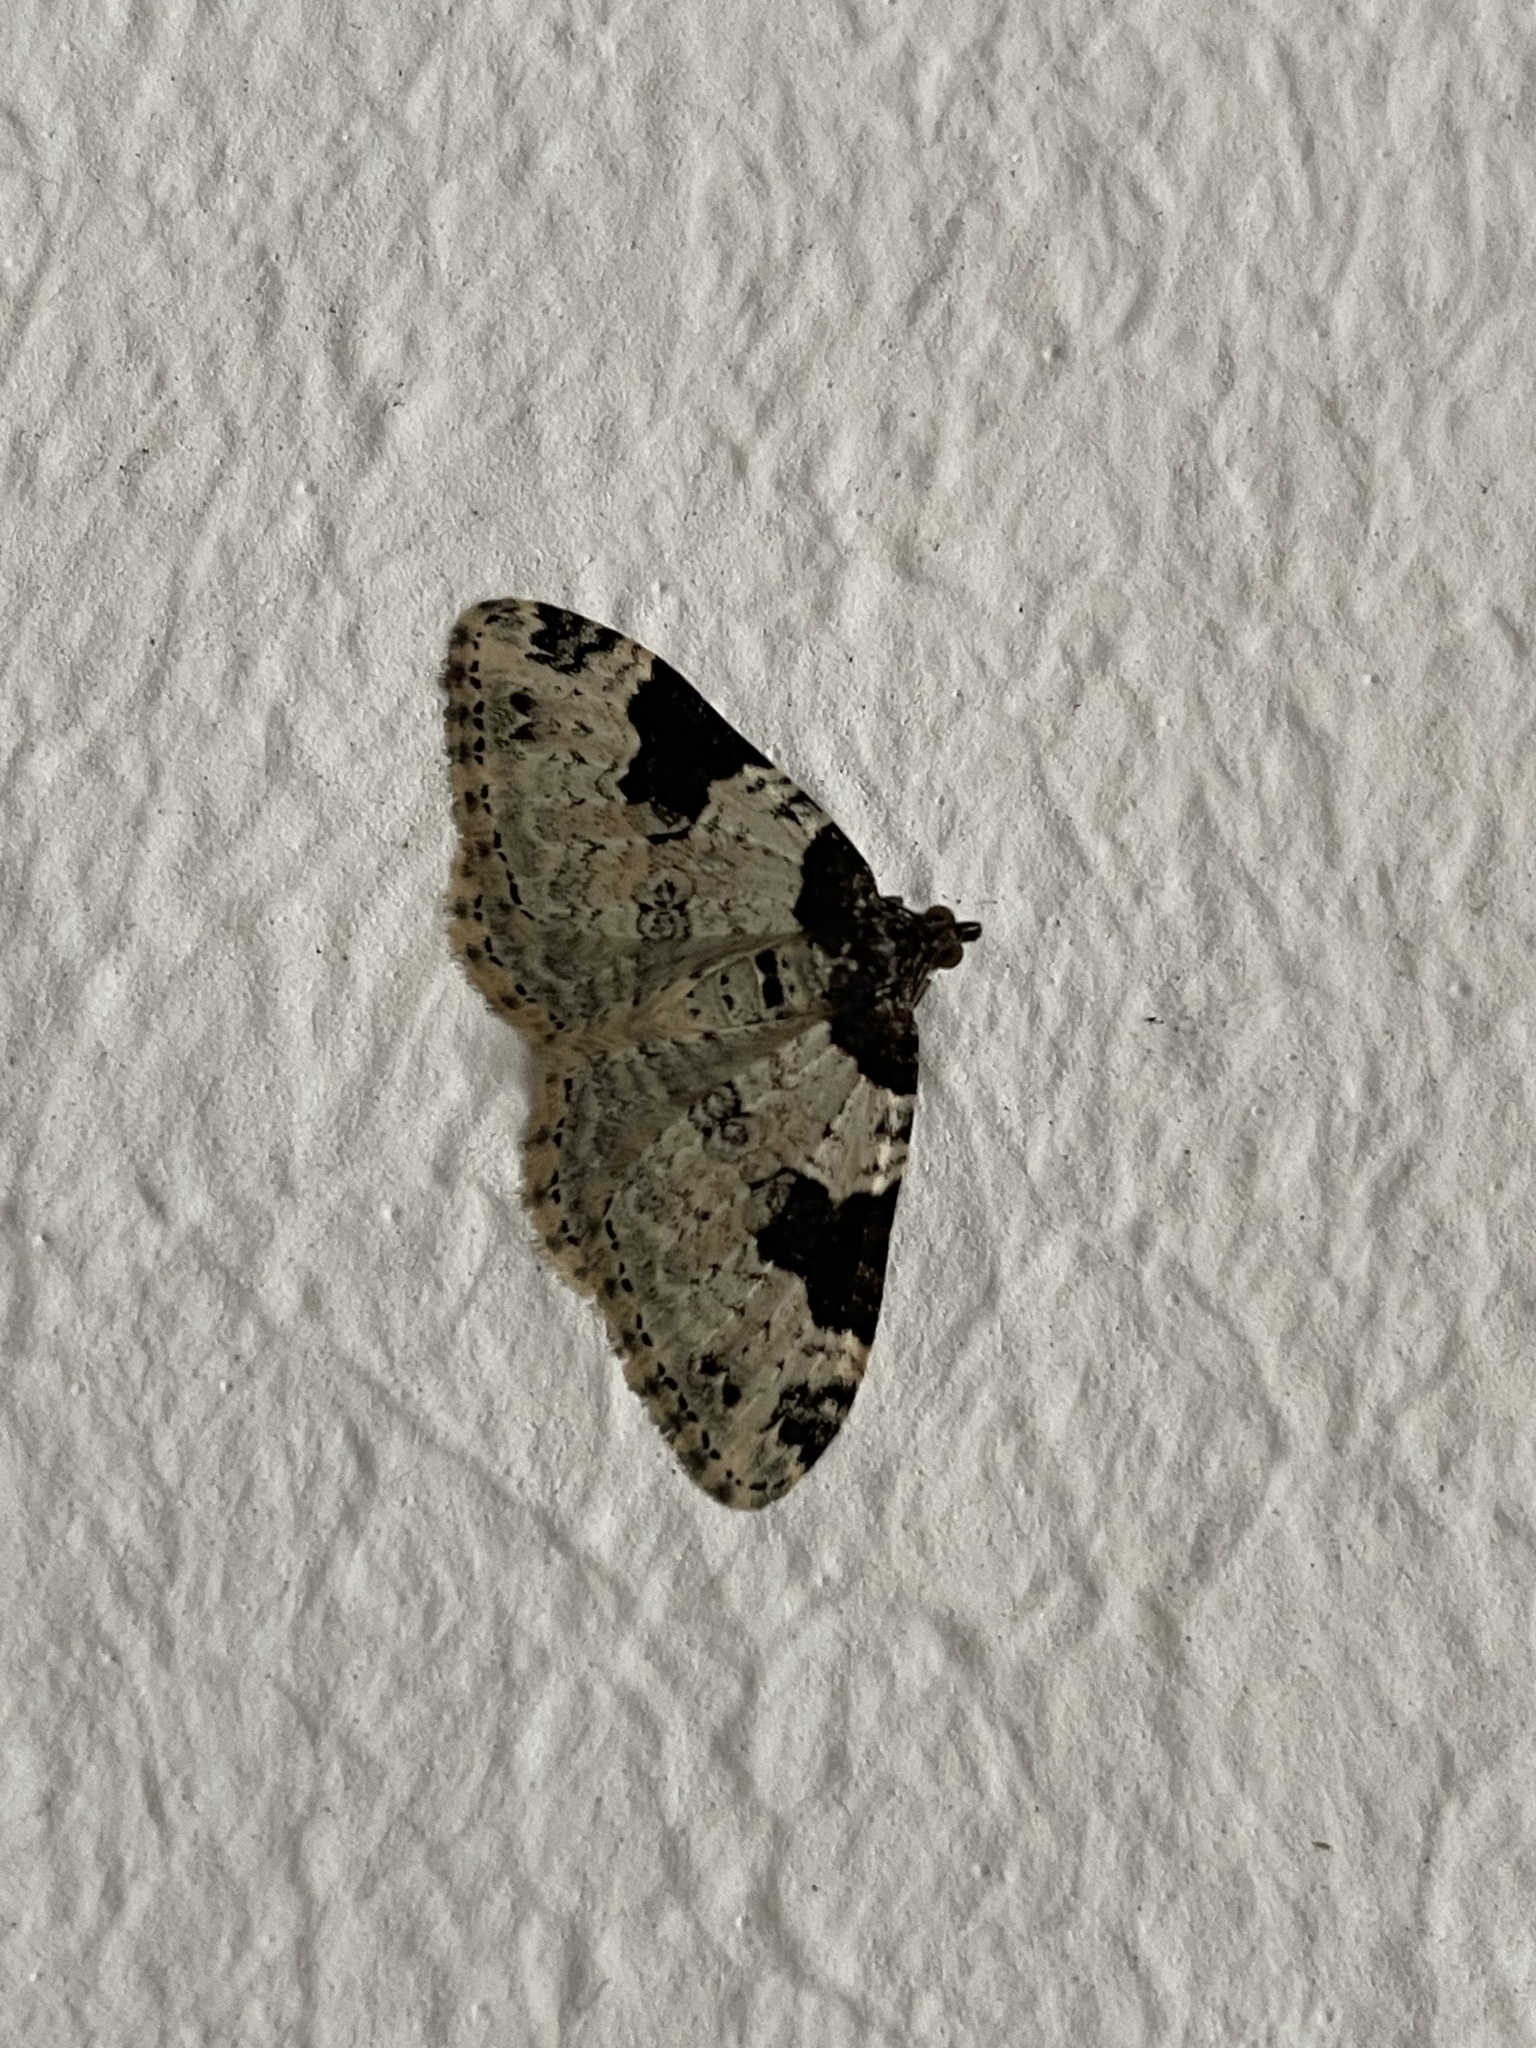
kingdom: Animalia
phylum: Arthropoda
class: Insecta
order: Lepidoptera
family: Geometridae
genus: Xanthorhoe
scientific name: Xanthorhoe fluctuata
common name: Garden carpet
